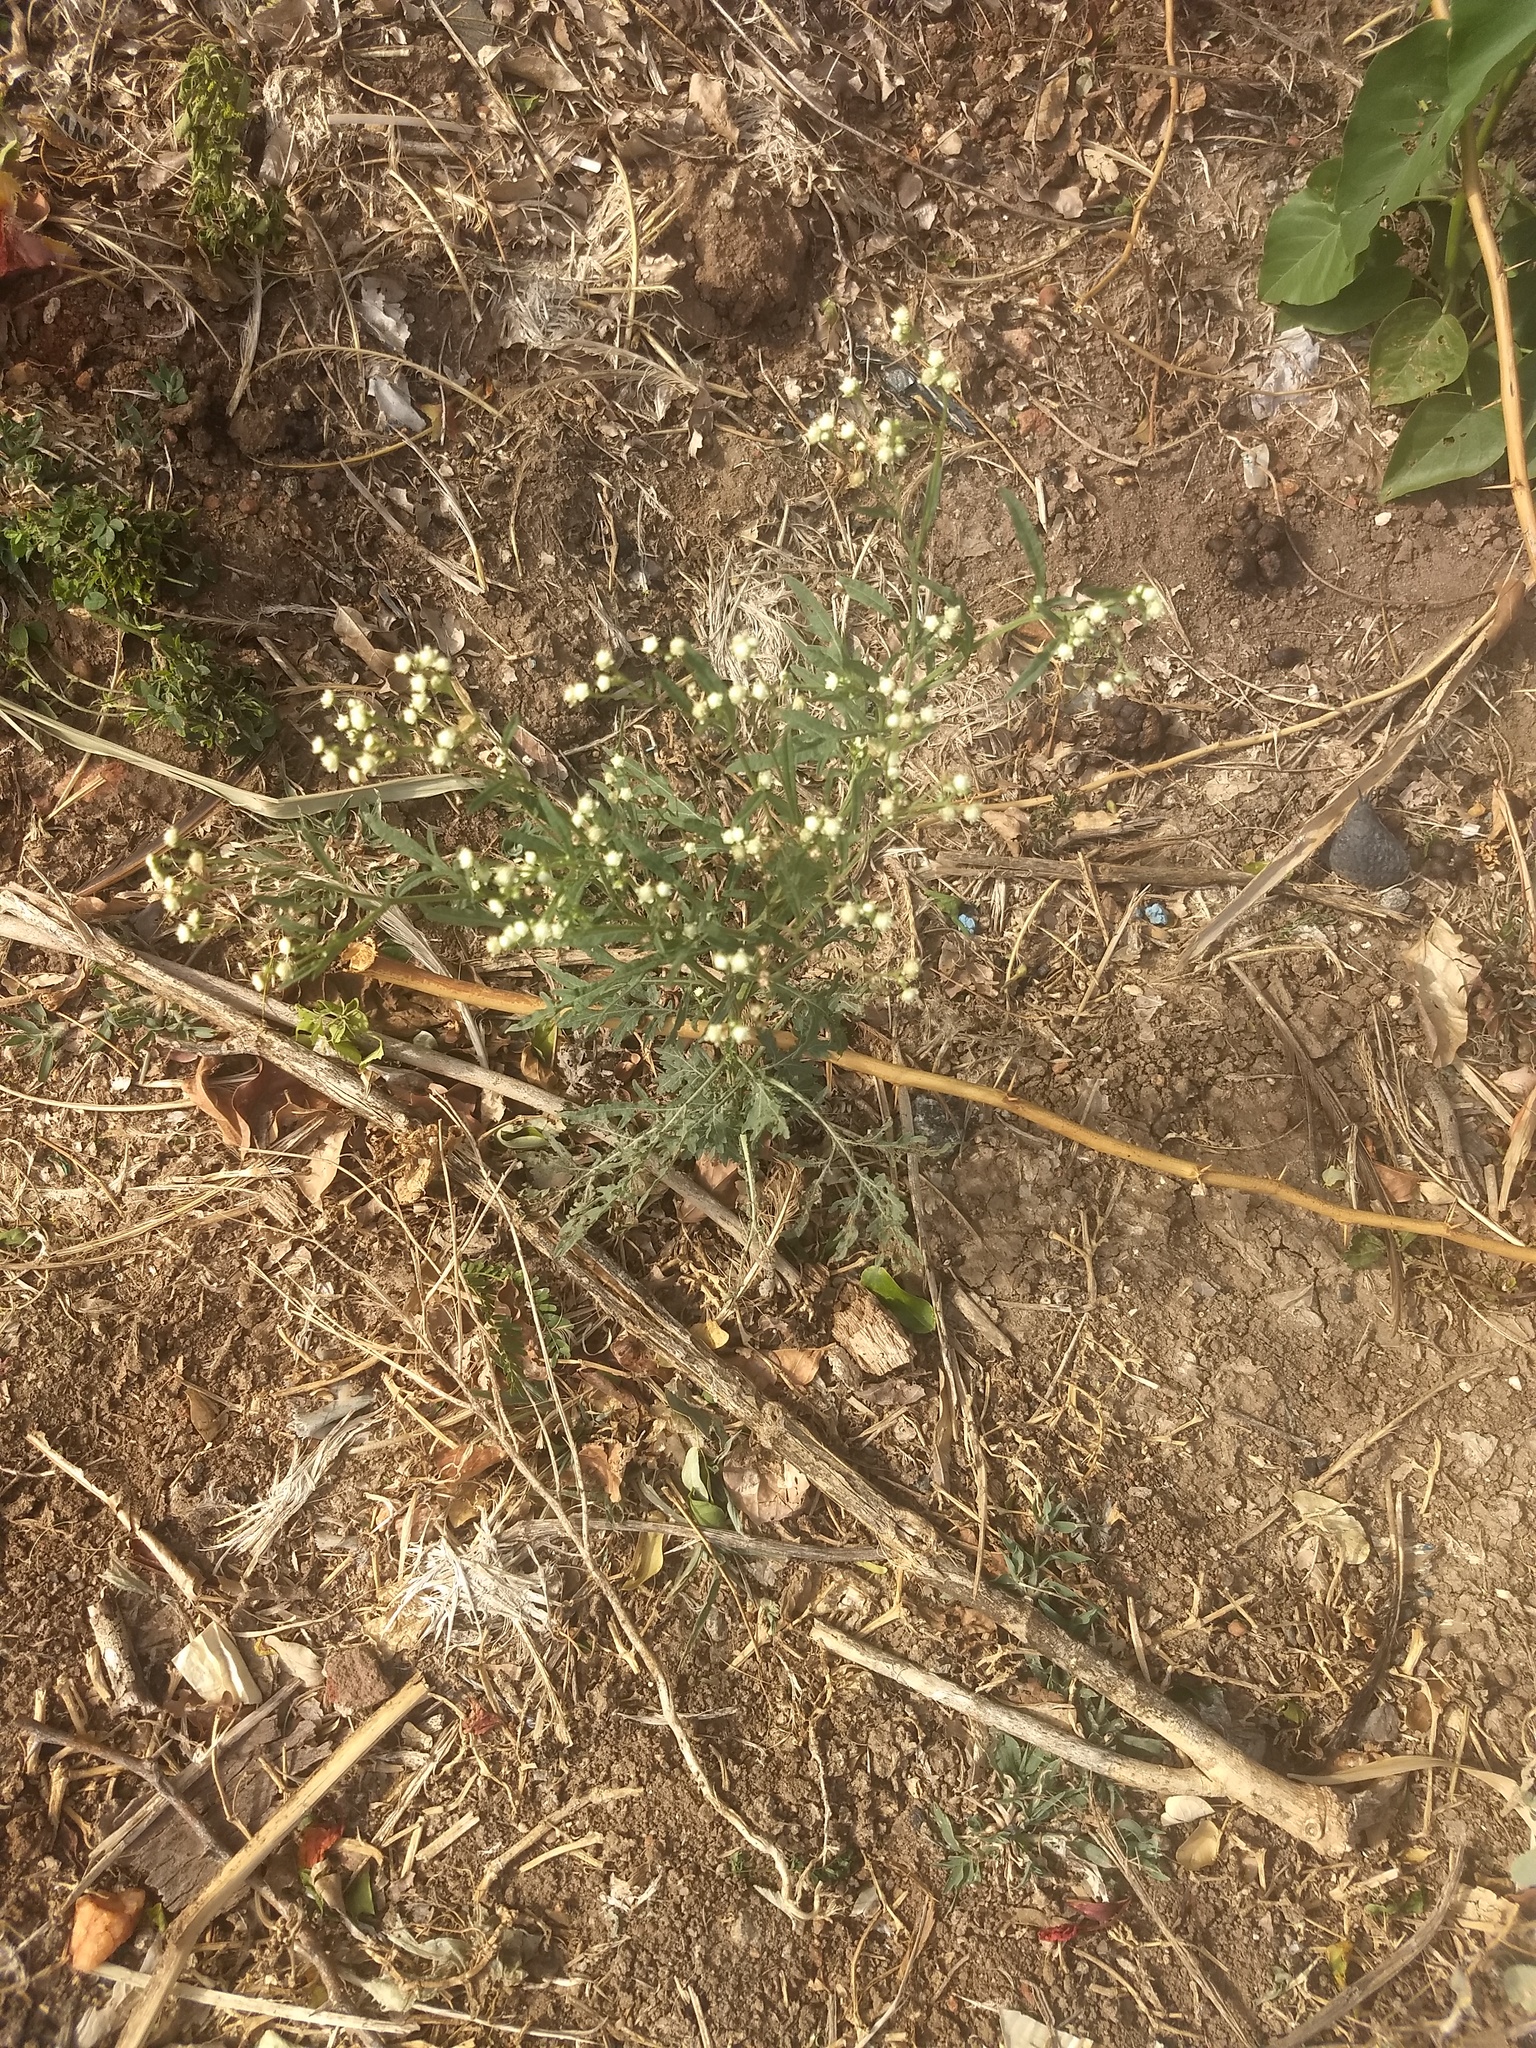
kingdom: Plantae
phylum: Tracheophyta
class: Magnoliopsida
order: Asterales
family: Asteraceae
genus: Parthenium
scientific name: Parthenium hysterophorus
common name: Santa maria feverfew
